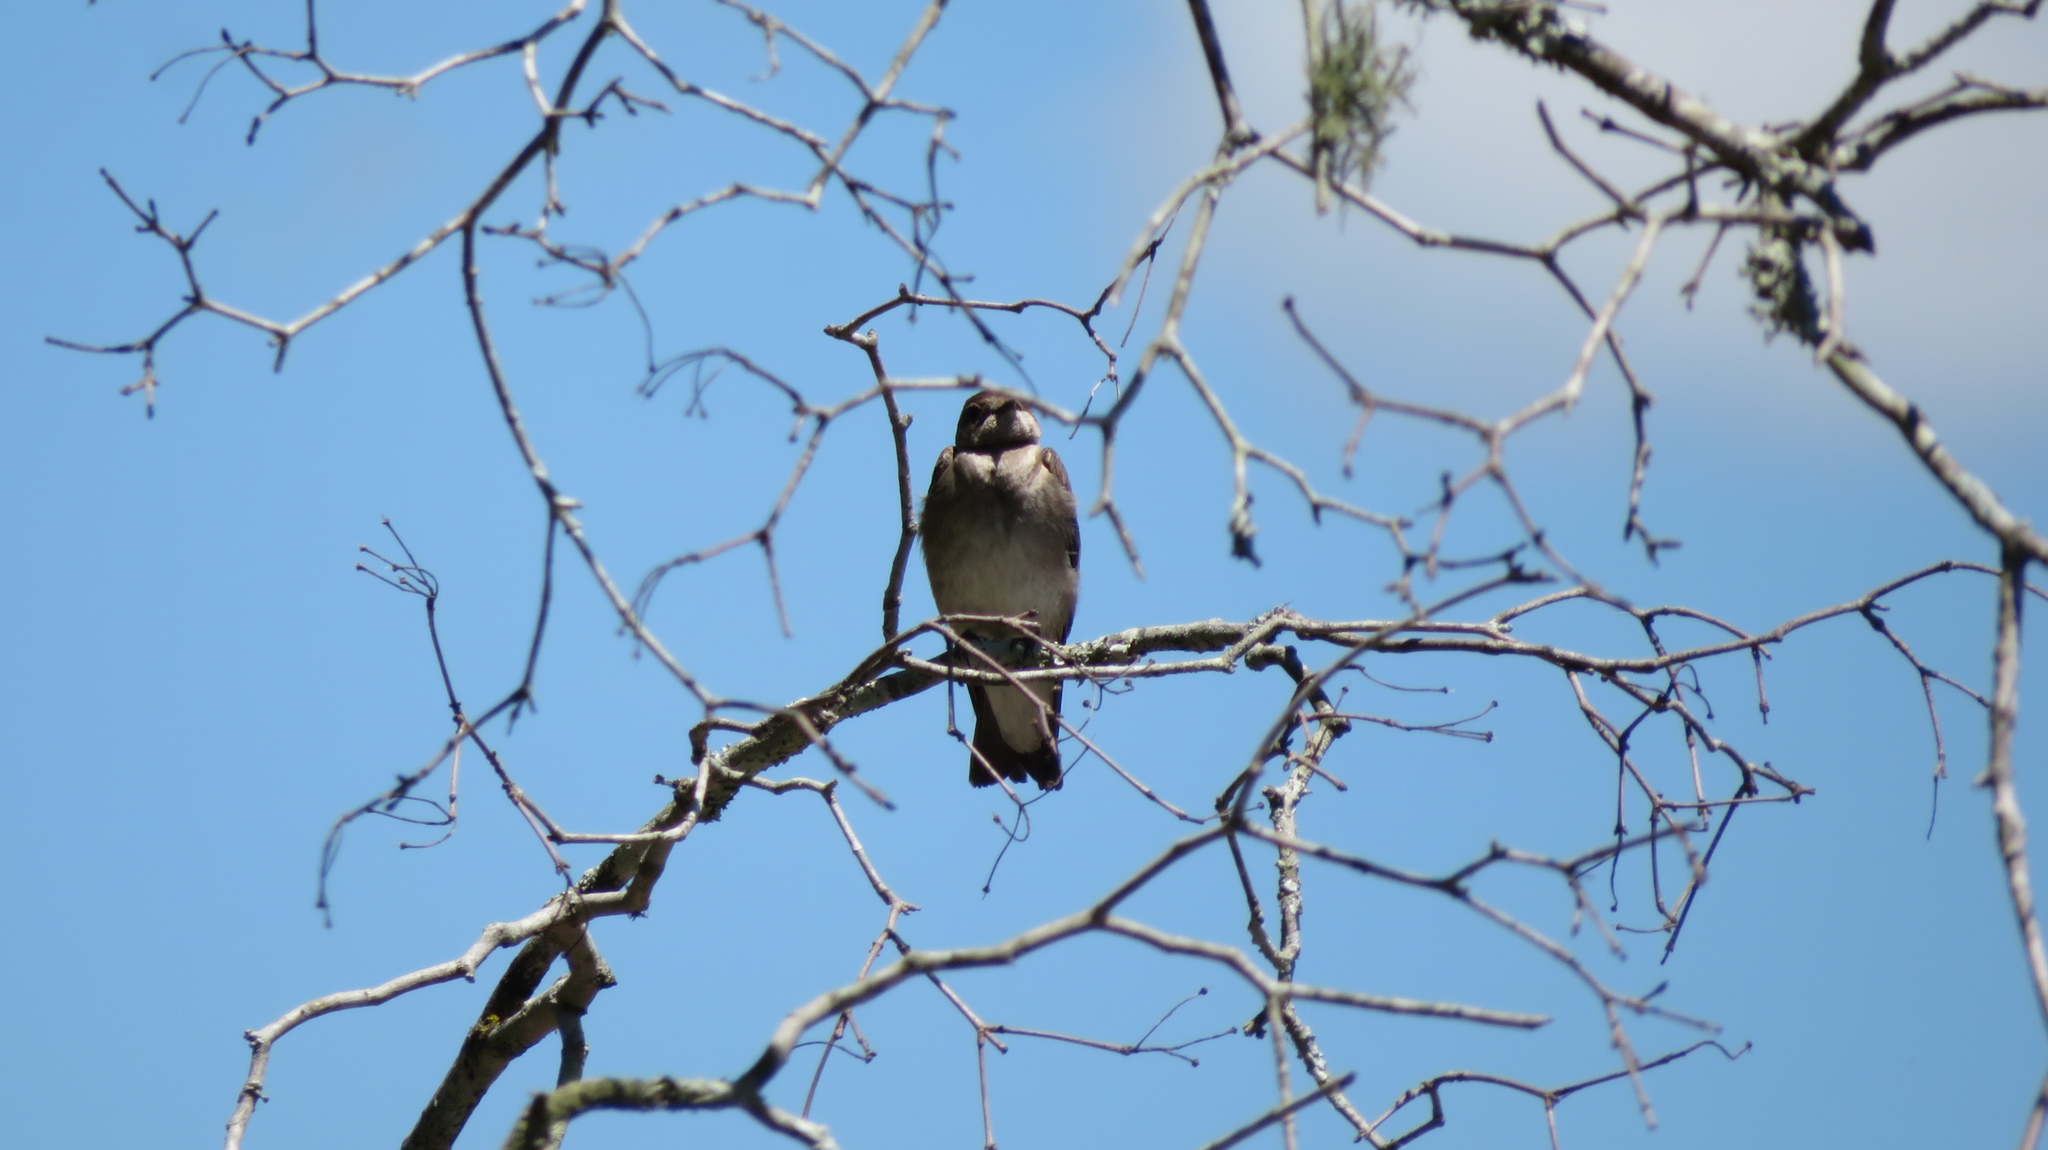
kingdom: Animalia
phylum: Chordata
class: Aves
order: Passeriformes
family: Hirundinidae
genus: Stelgidopteryx
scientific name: Stelgidopteryx serripennis
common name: Northern rough-winged swallow
